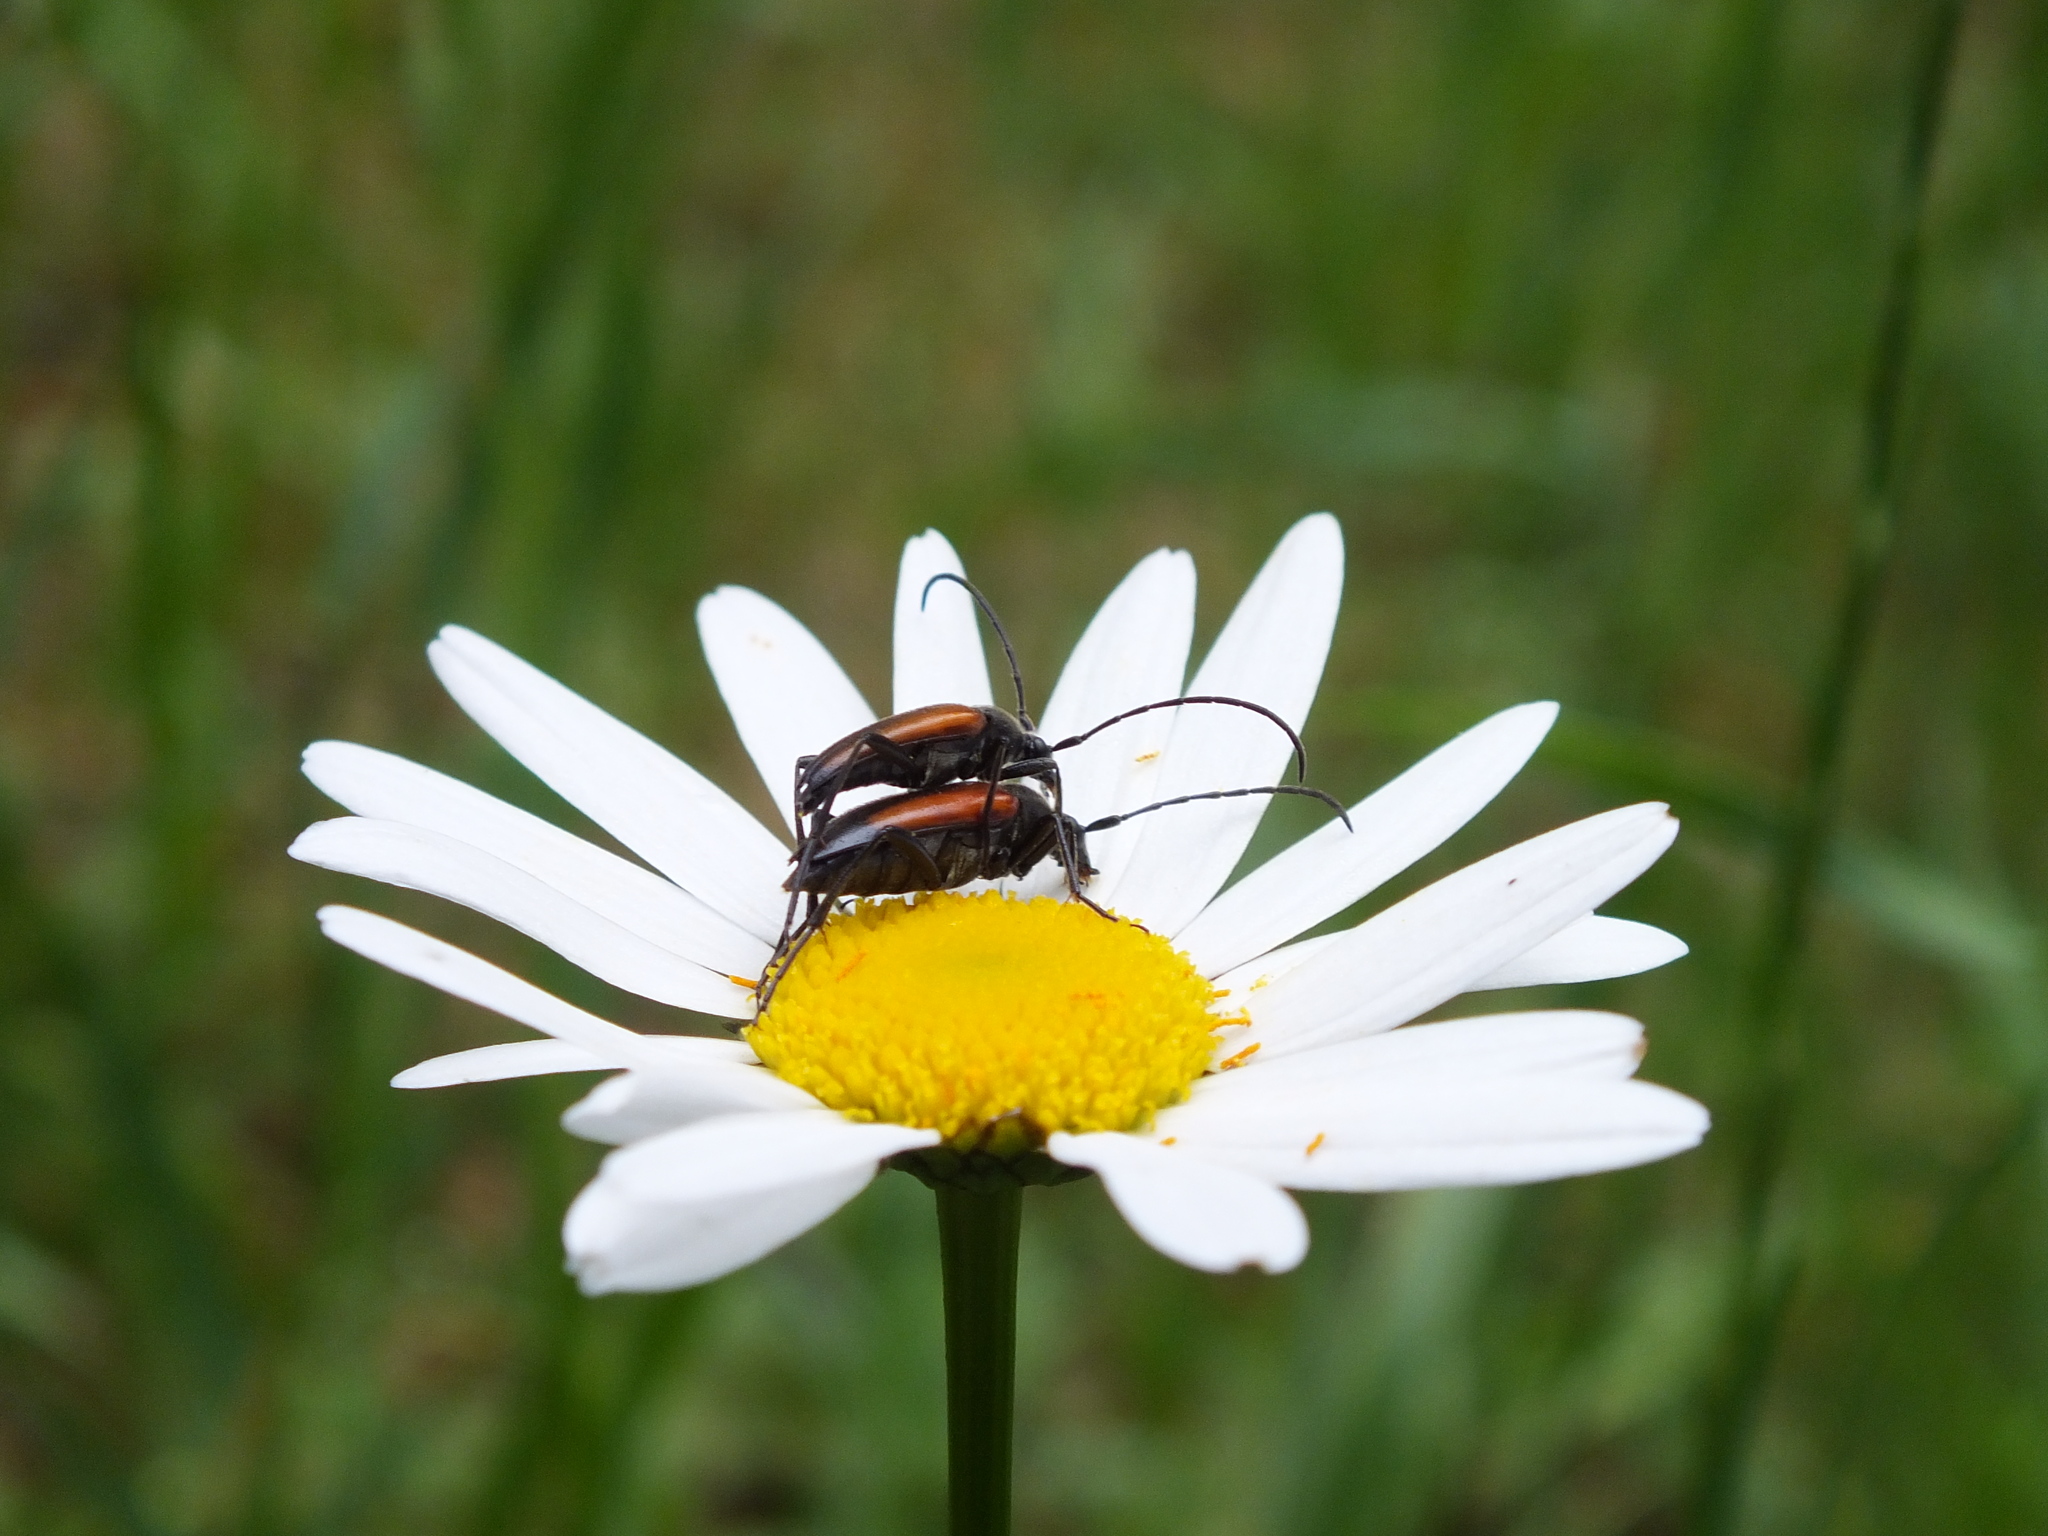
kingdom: Animalia
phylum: Arthropoda
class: Insecta
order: Coleoptera
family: Cerambycidae
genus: Stenurella
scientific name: Stenurella melanura
